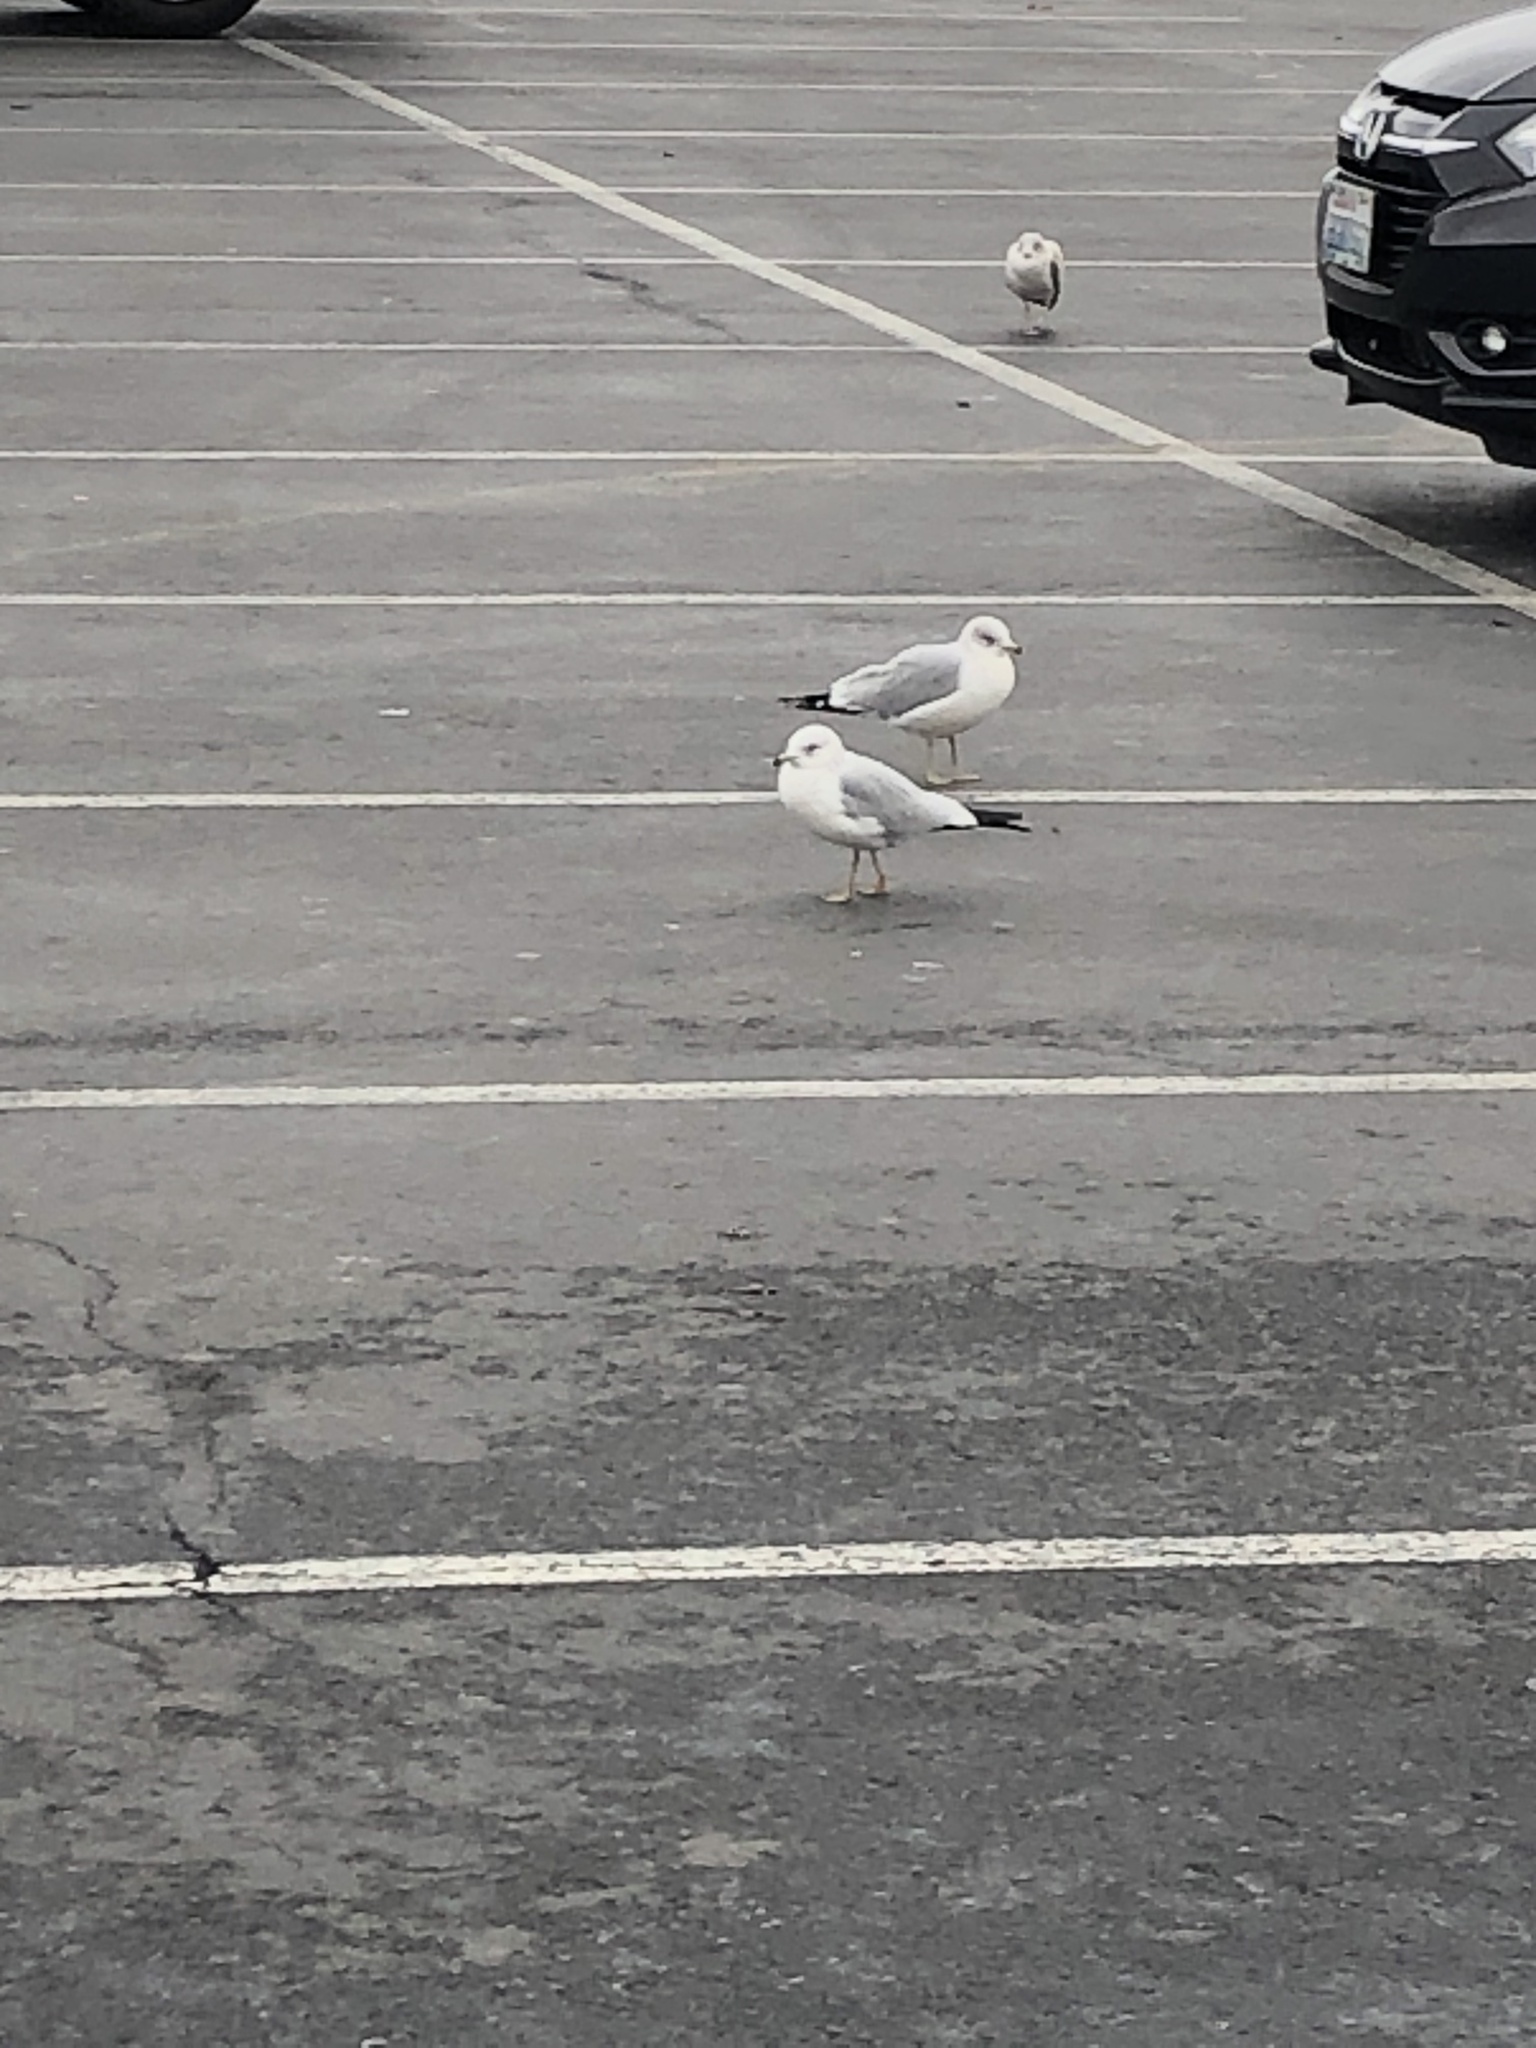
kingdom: Animalia
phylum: Chordata
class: Aves
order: Charadriiformes
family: Laridae
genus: Larus
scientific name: Larus delawarensis
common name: Ring-billed gull
